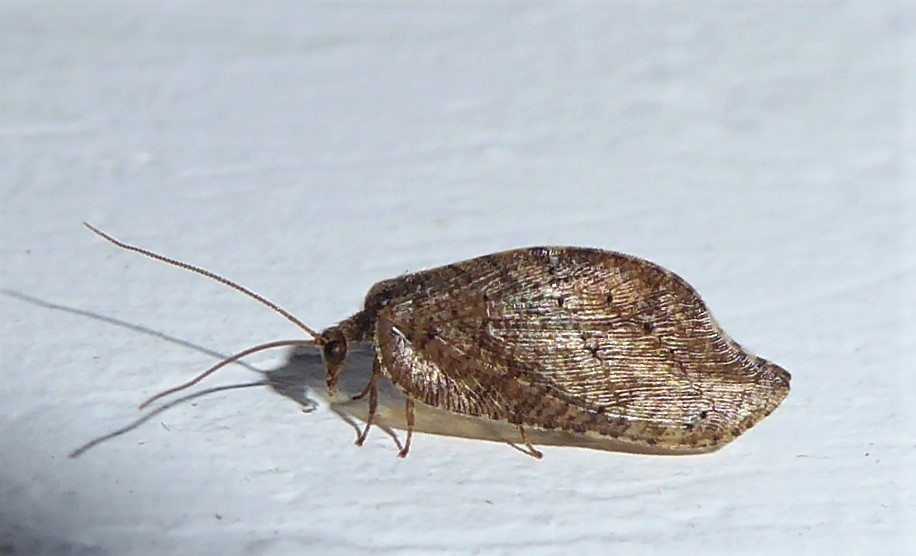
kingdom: Animalia
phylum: Arthropoda
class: Insecta
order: Neuroptera
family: Hemerobiidae
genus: Drepanacra
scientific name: Drepanacra binocula
